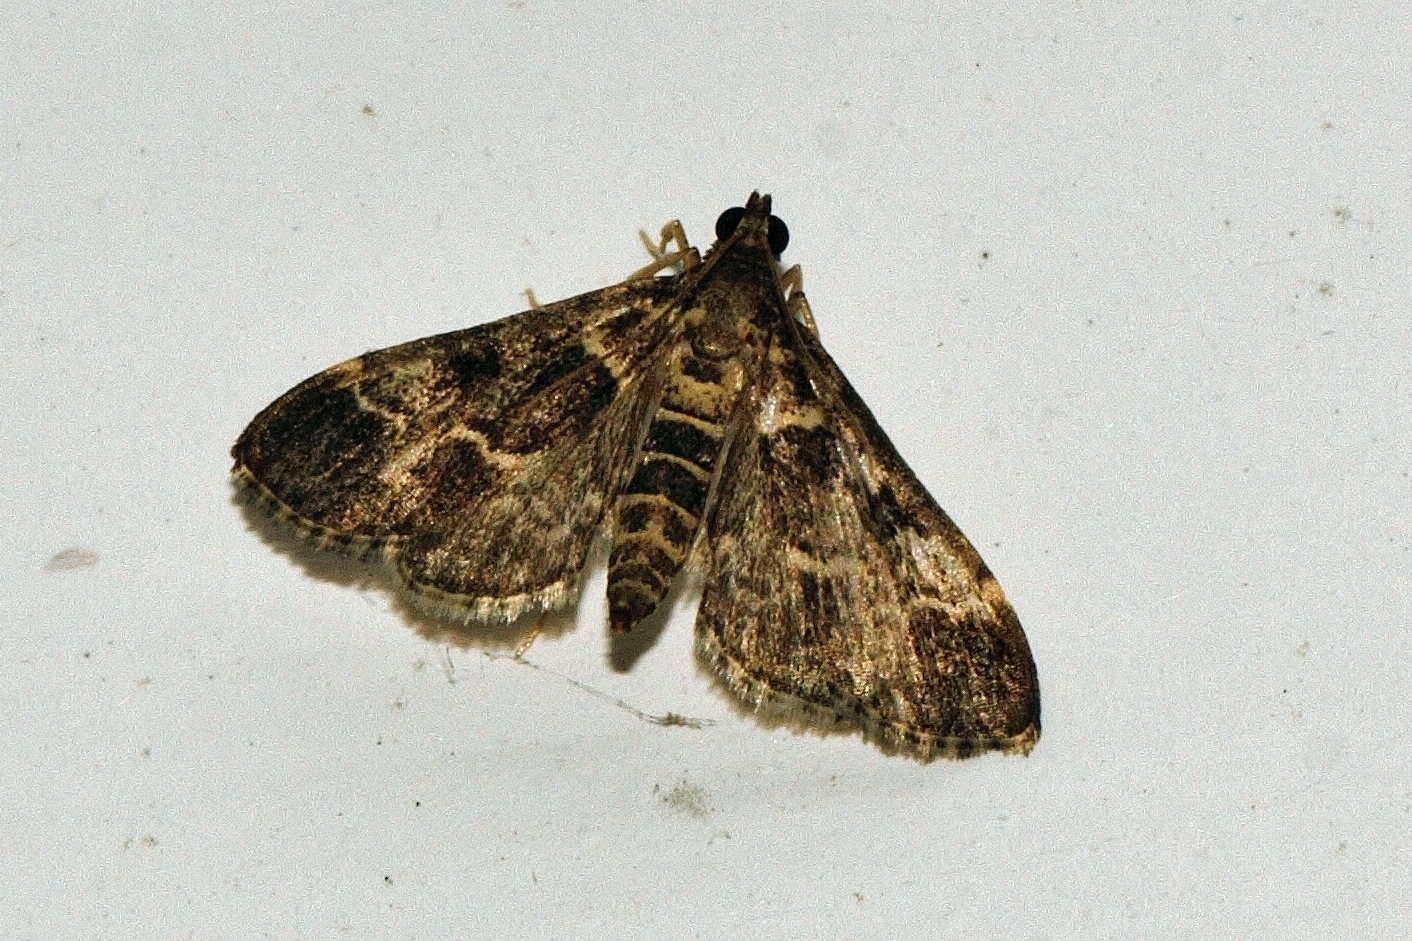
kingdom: Animalia
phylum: Arthropoda
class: Insecta
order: Lepidoptera
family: Crambidae
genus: Duponchelia
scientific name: Duponchelia fovealis
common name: Crambid moth
